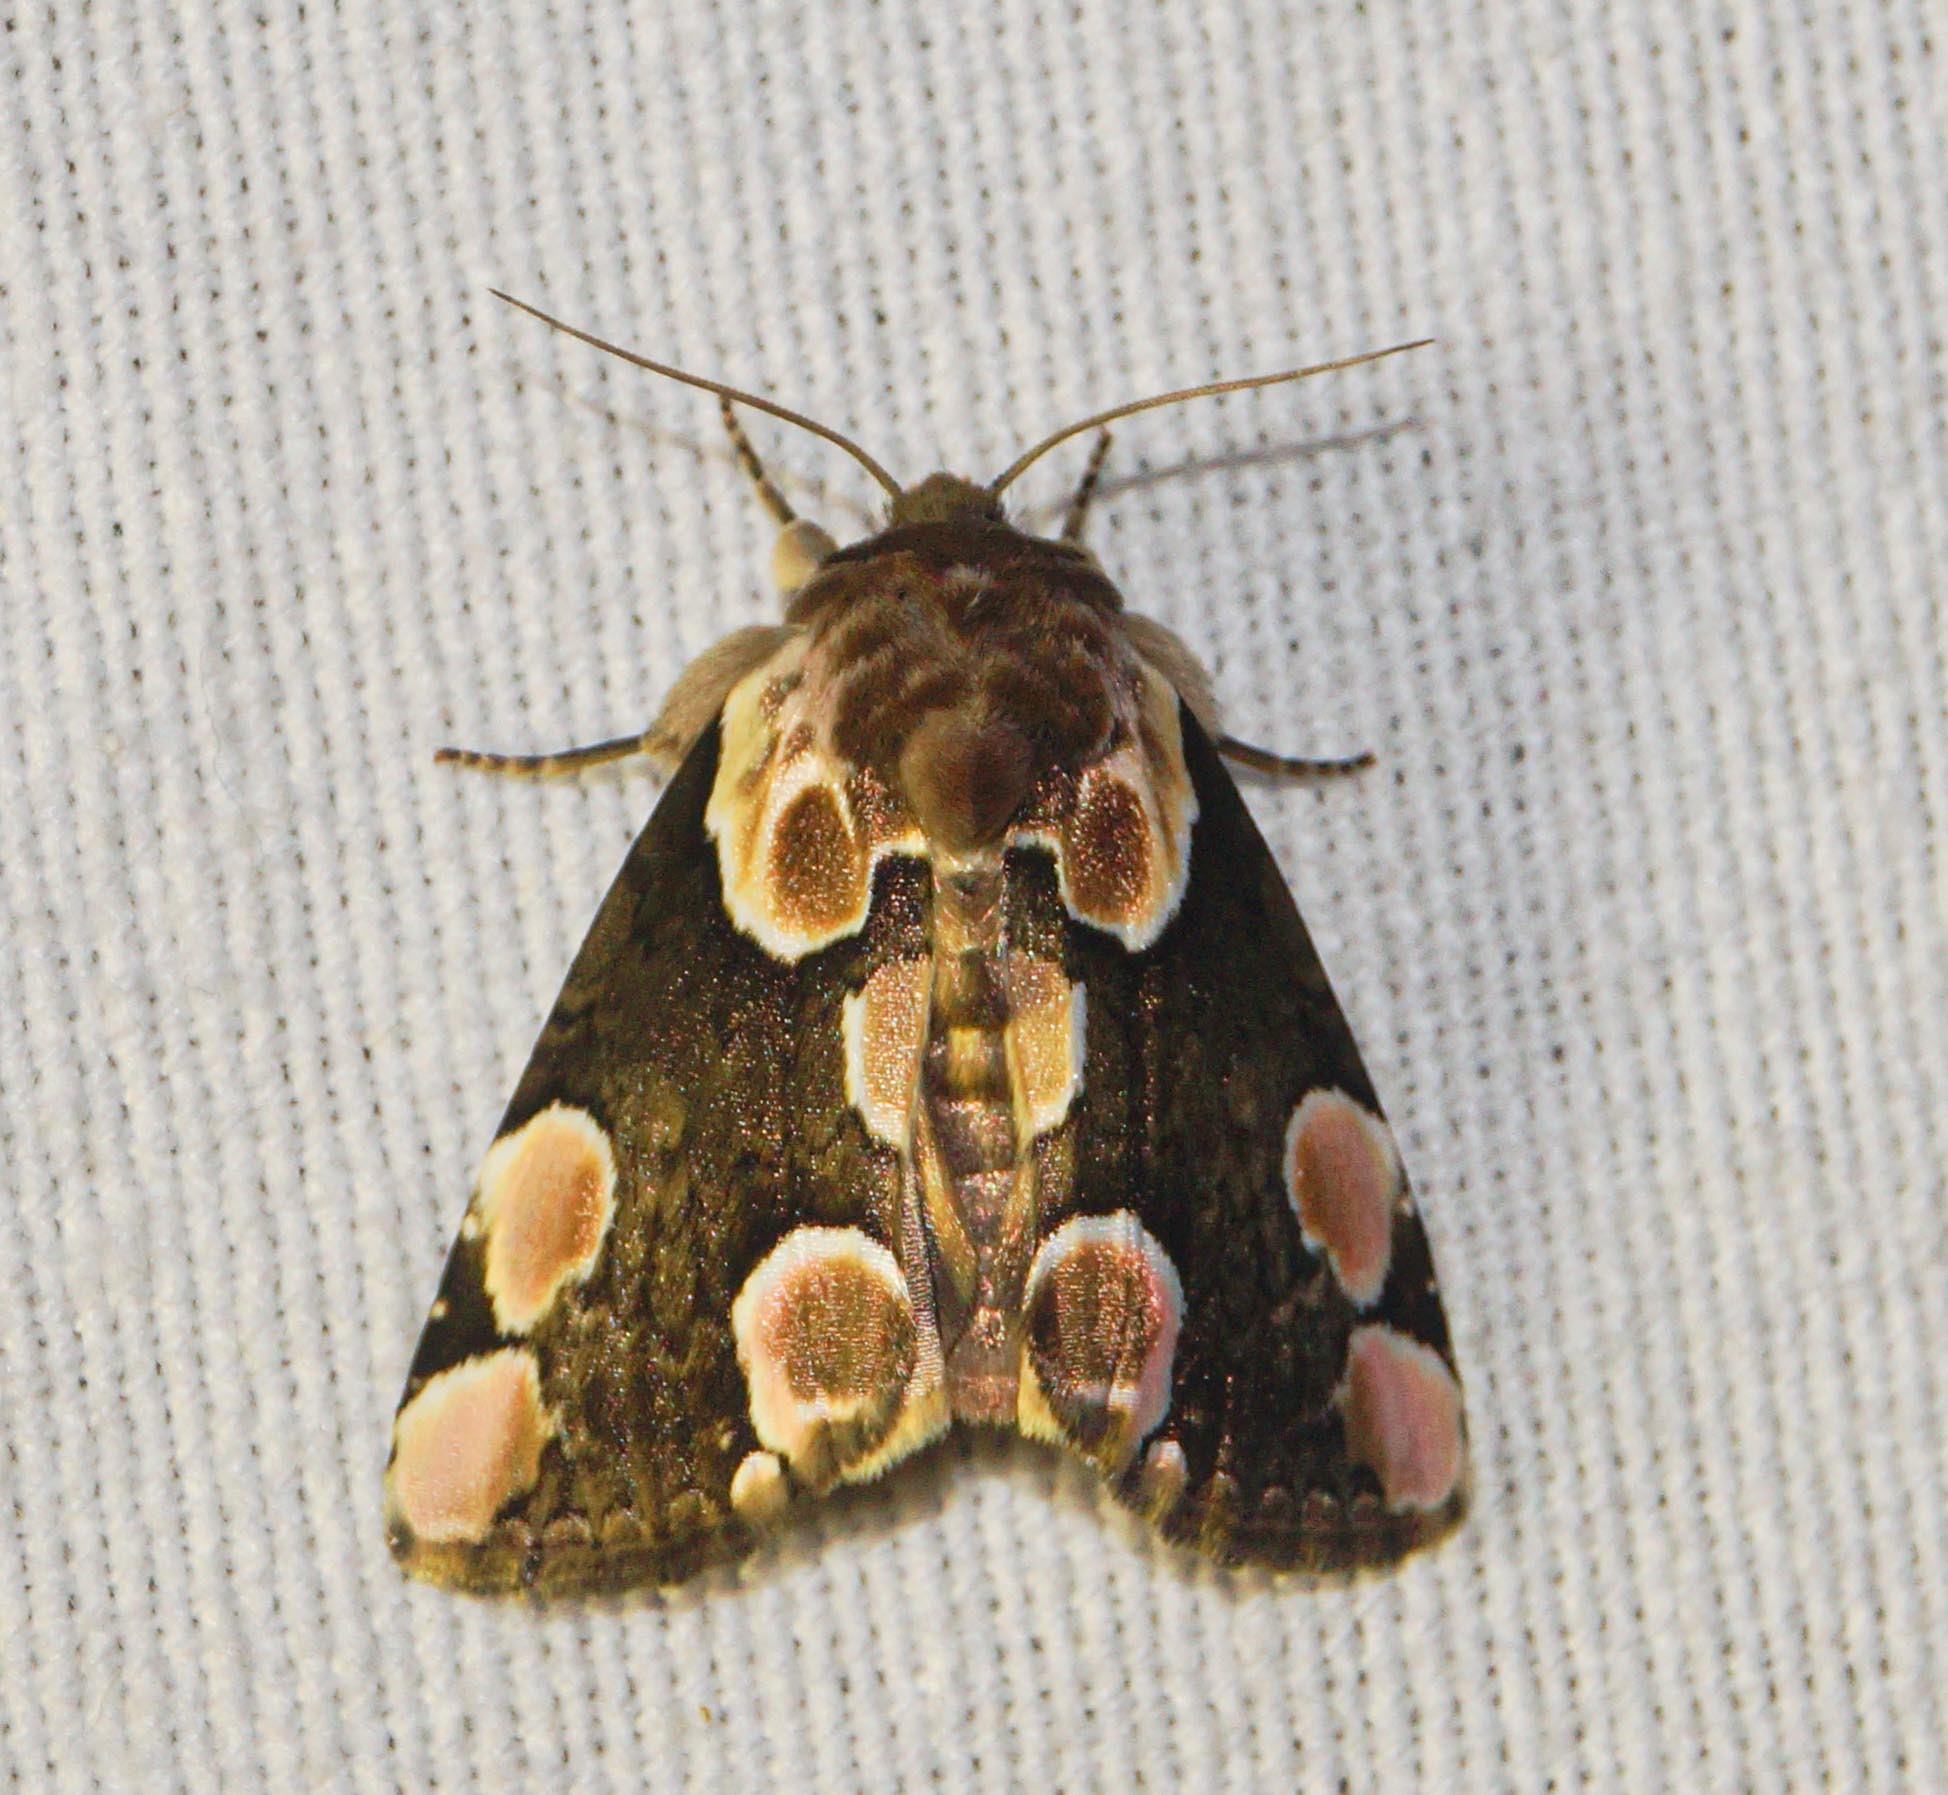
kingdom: Animalia
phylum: Arthropoda
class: Insecta
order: Lepidoptera
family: Drepanidae
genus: Thyatira
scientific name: Thyatira batis
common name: Peach blossom
